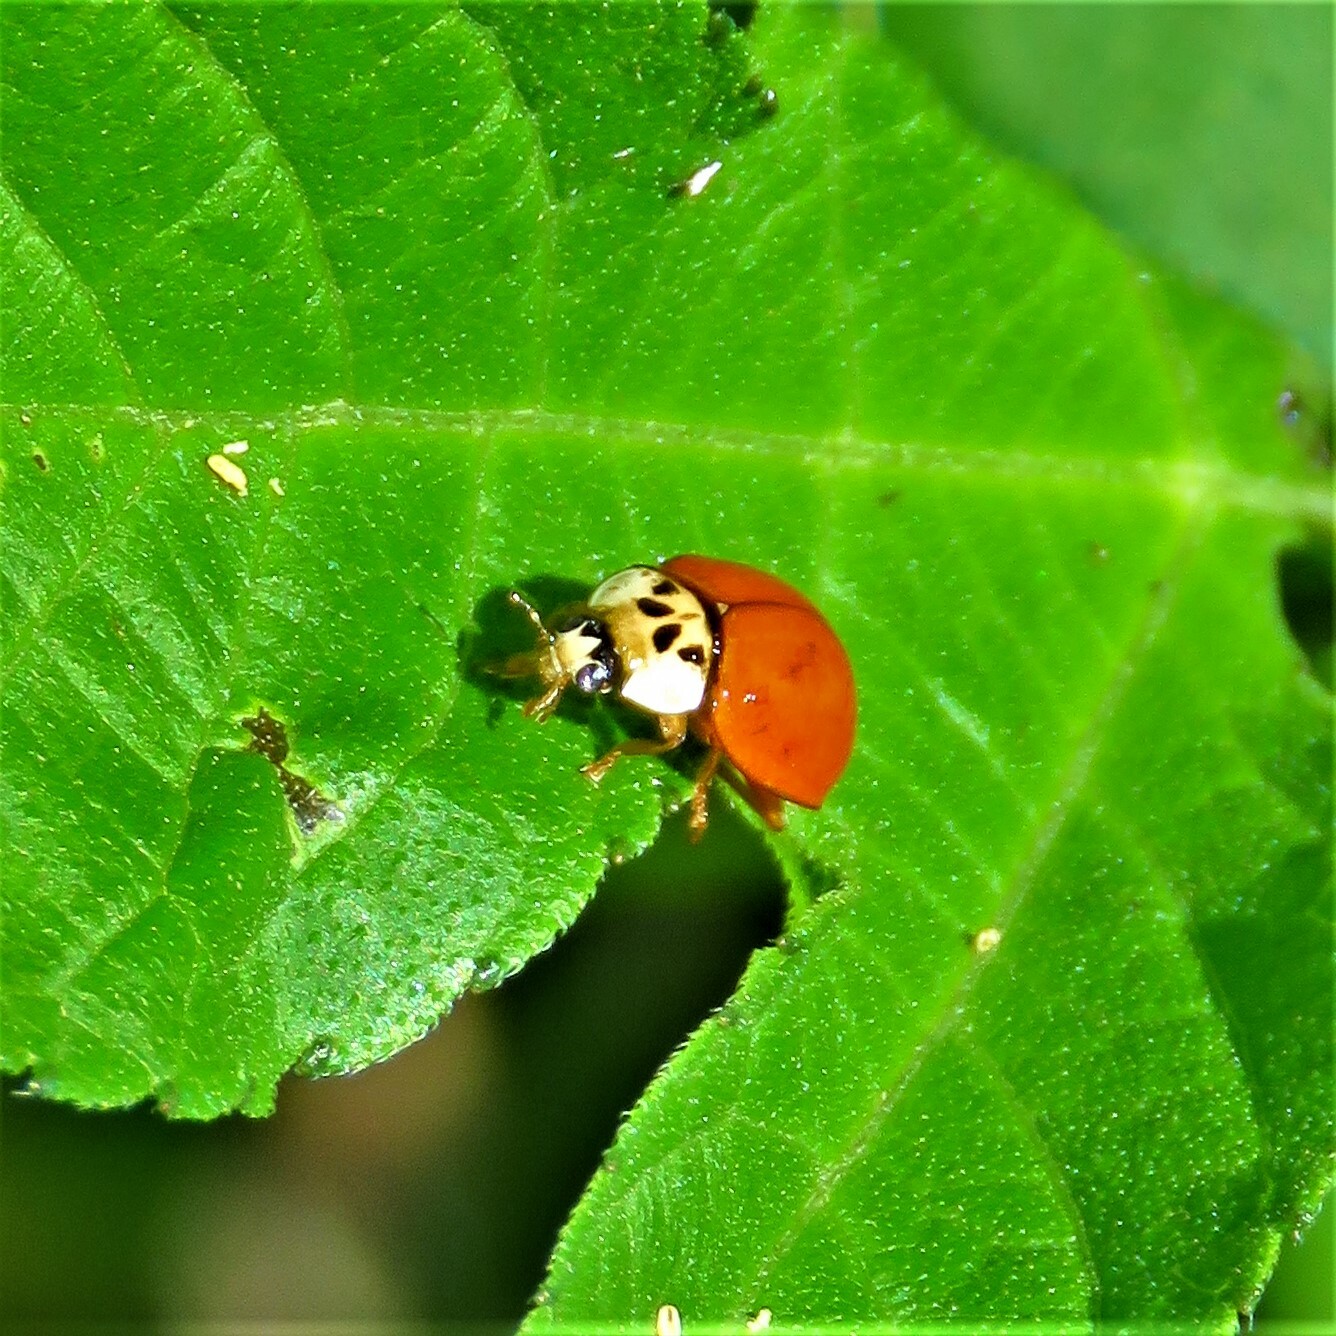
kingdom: Animalia
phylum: Arthropoda
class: Insecta
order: Coleoptera
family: Coccinellidae
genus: Harmonia
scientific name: Harmonia axyridis
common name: Harlequin ladybird
